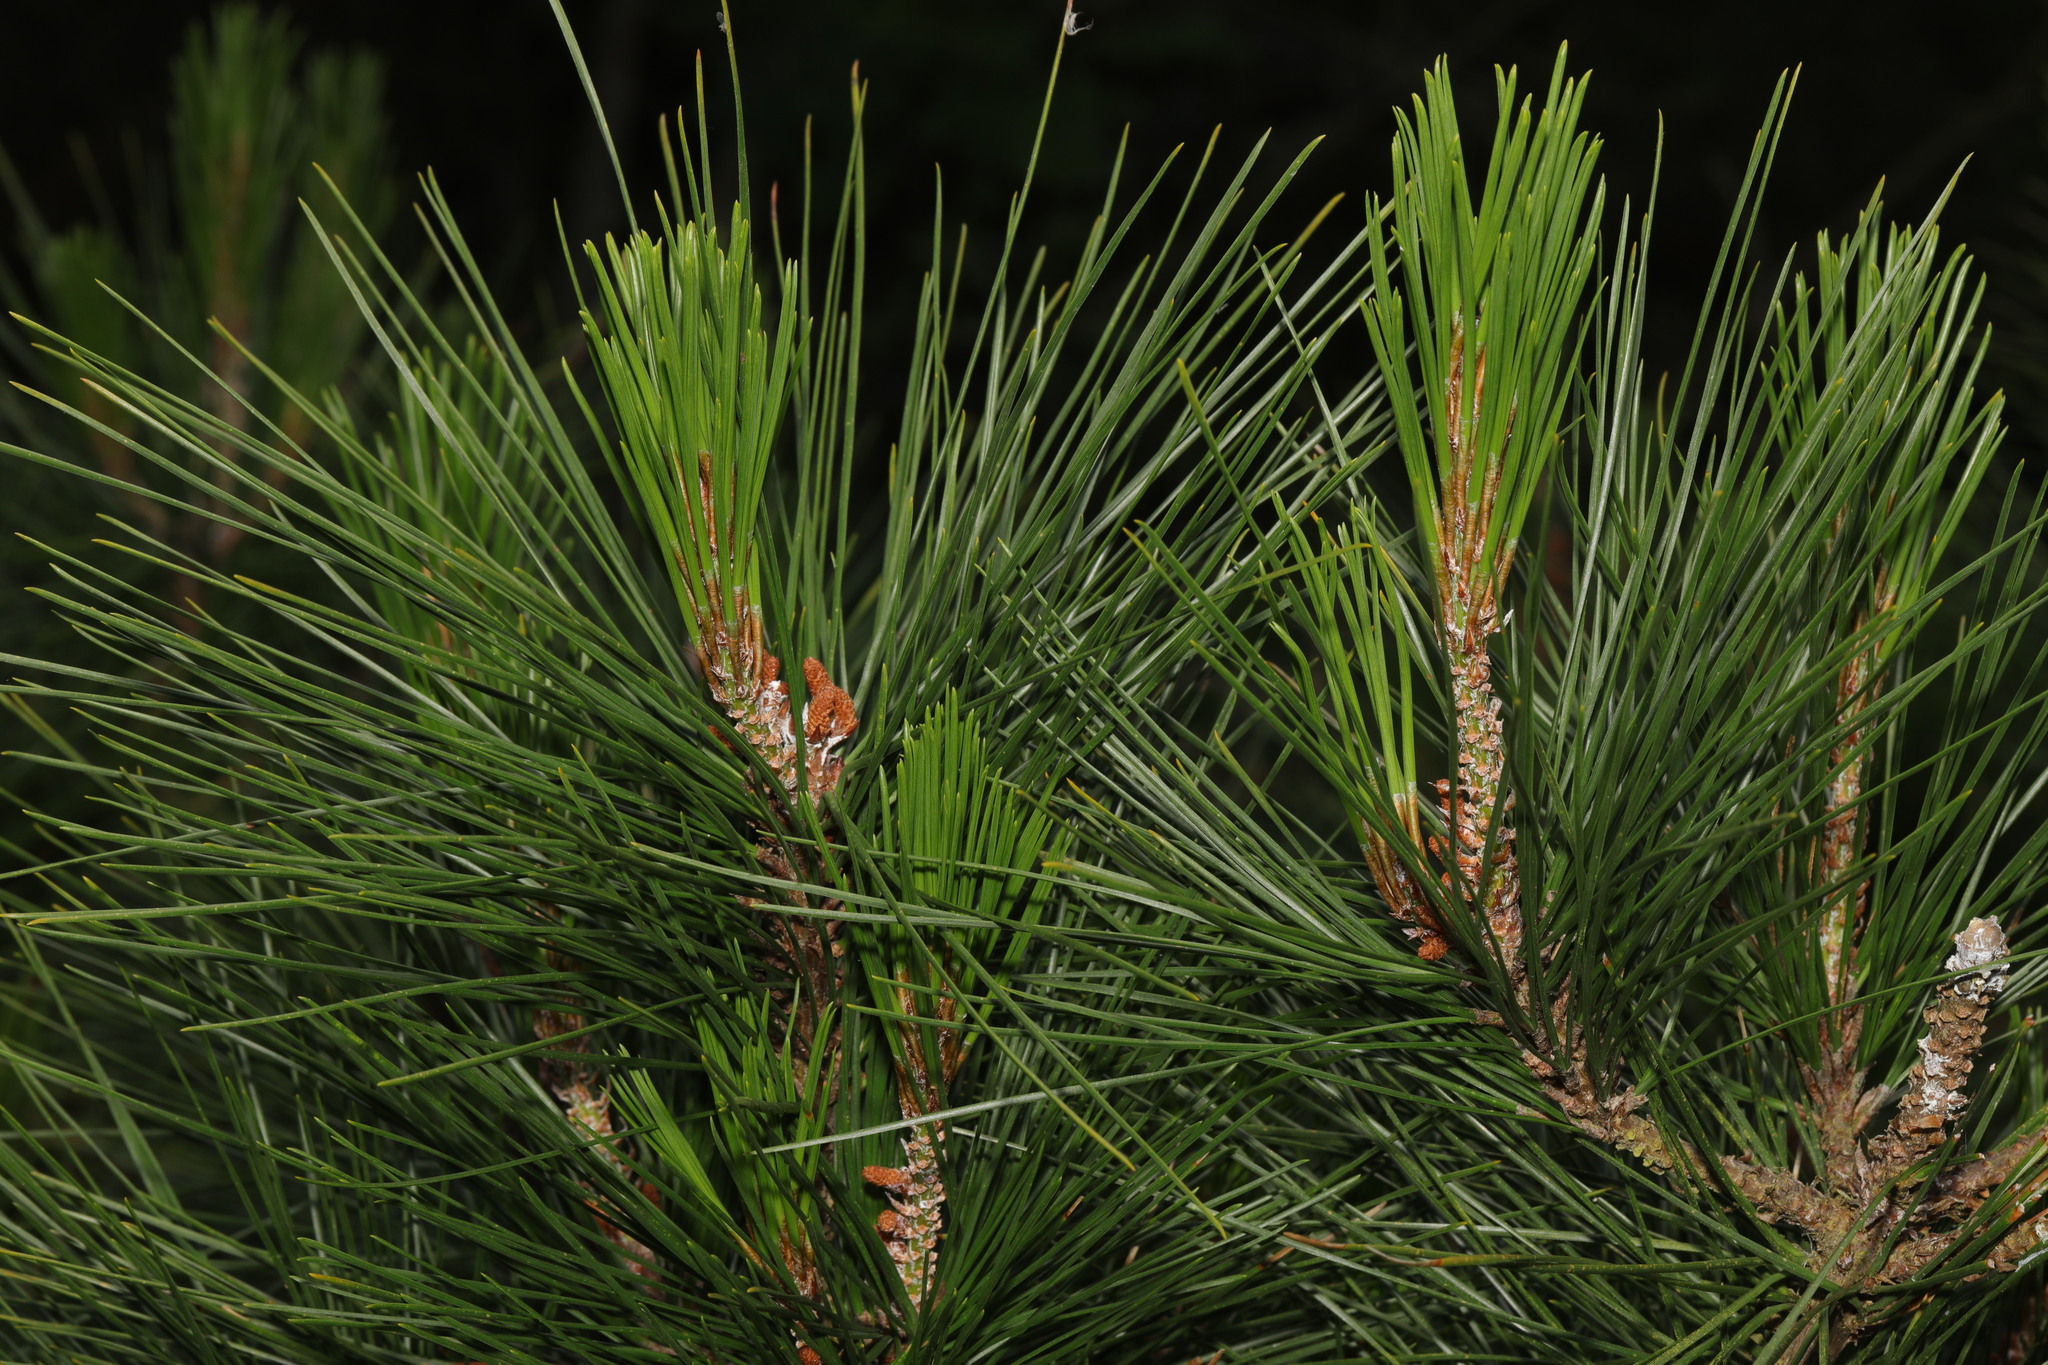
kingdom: Plantae
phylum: Tracheophyta
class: Pinopsida
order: Pinales
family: Pinaceae
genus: Pinus
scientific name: Pinus nigra
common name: Austrian pine
